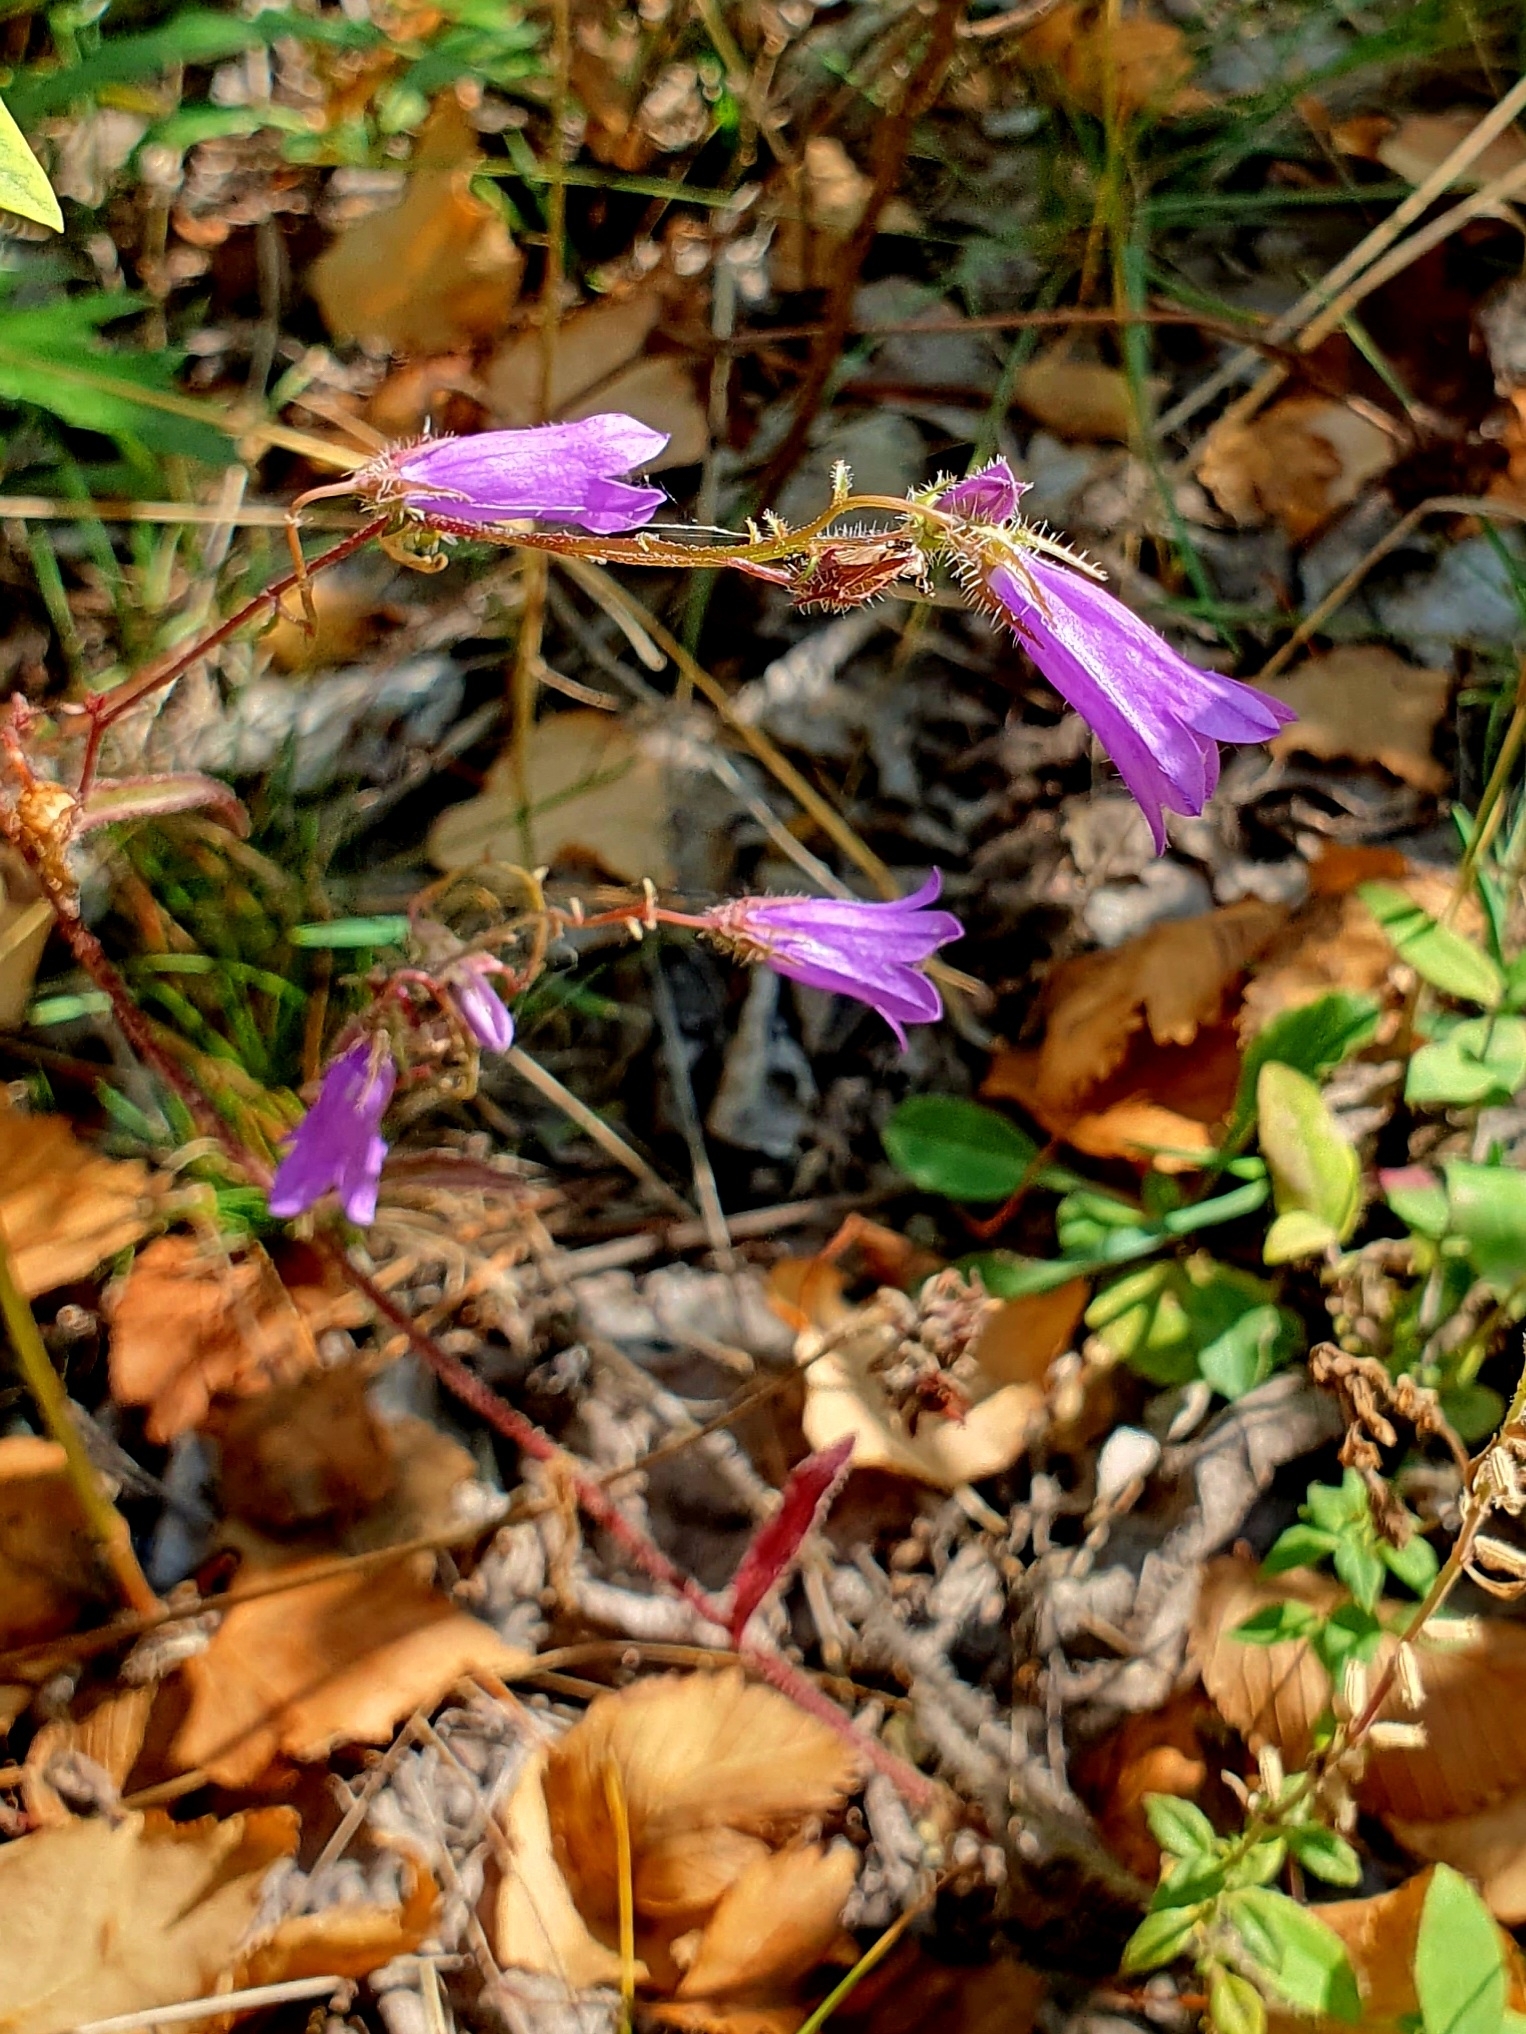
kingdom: Plantae
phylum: Tracheophyta
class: Magnoliopsida
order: Asterales
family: Campanulaceae
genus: Campanula
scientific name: Campanula sibirica
